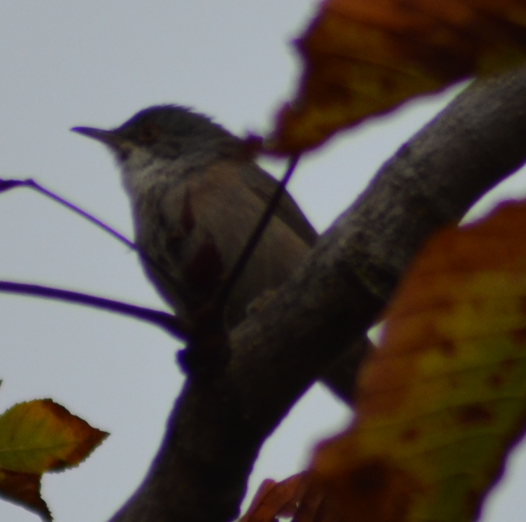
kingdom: Animalia
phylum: Chordata
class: Aves
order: Passeriformes
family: Sylviidae
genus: Curruca
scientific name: Curruca melanocephala
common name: Sardinian warbler
